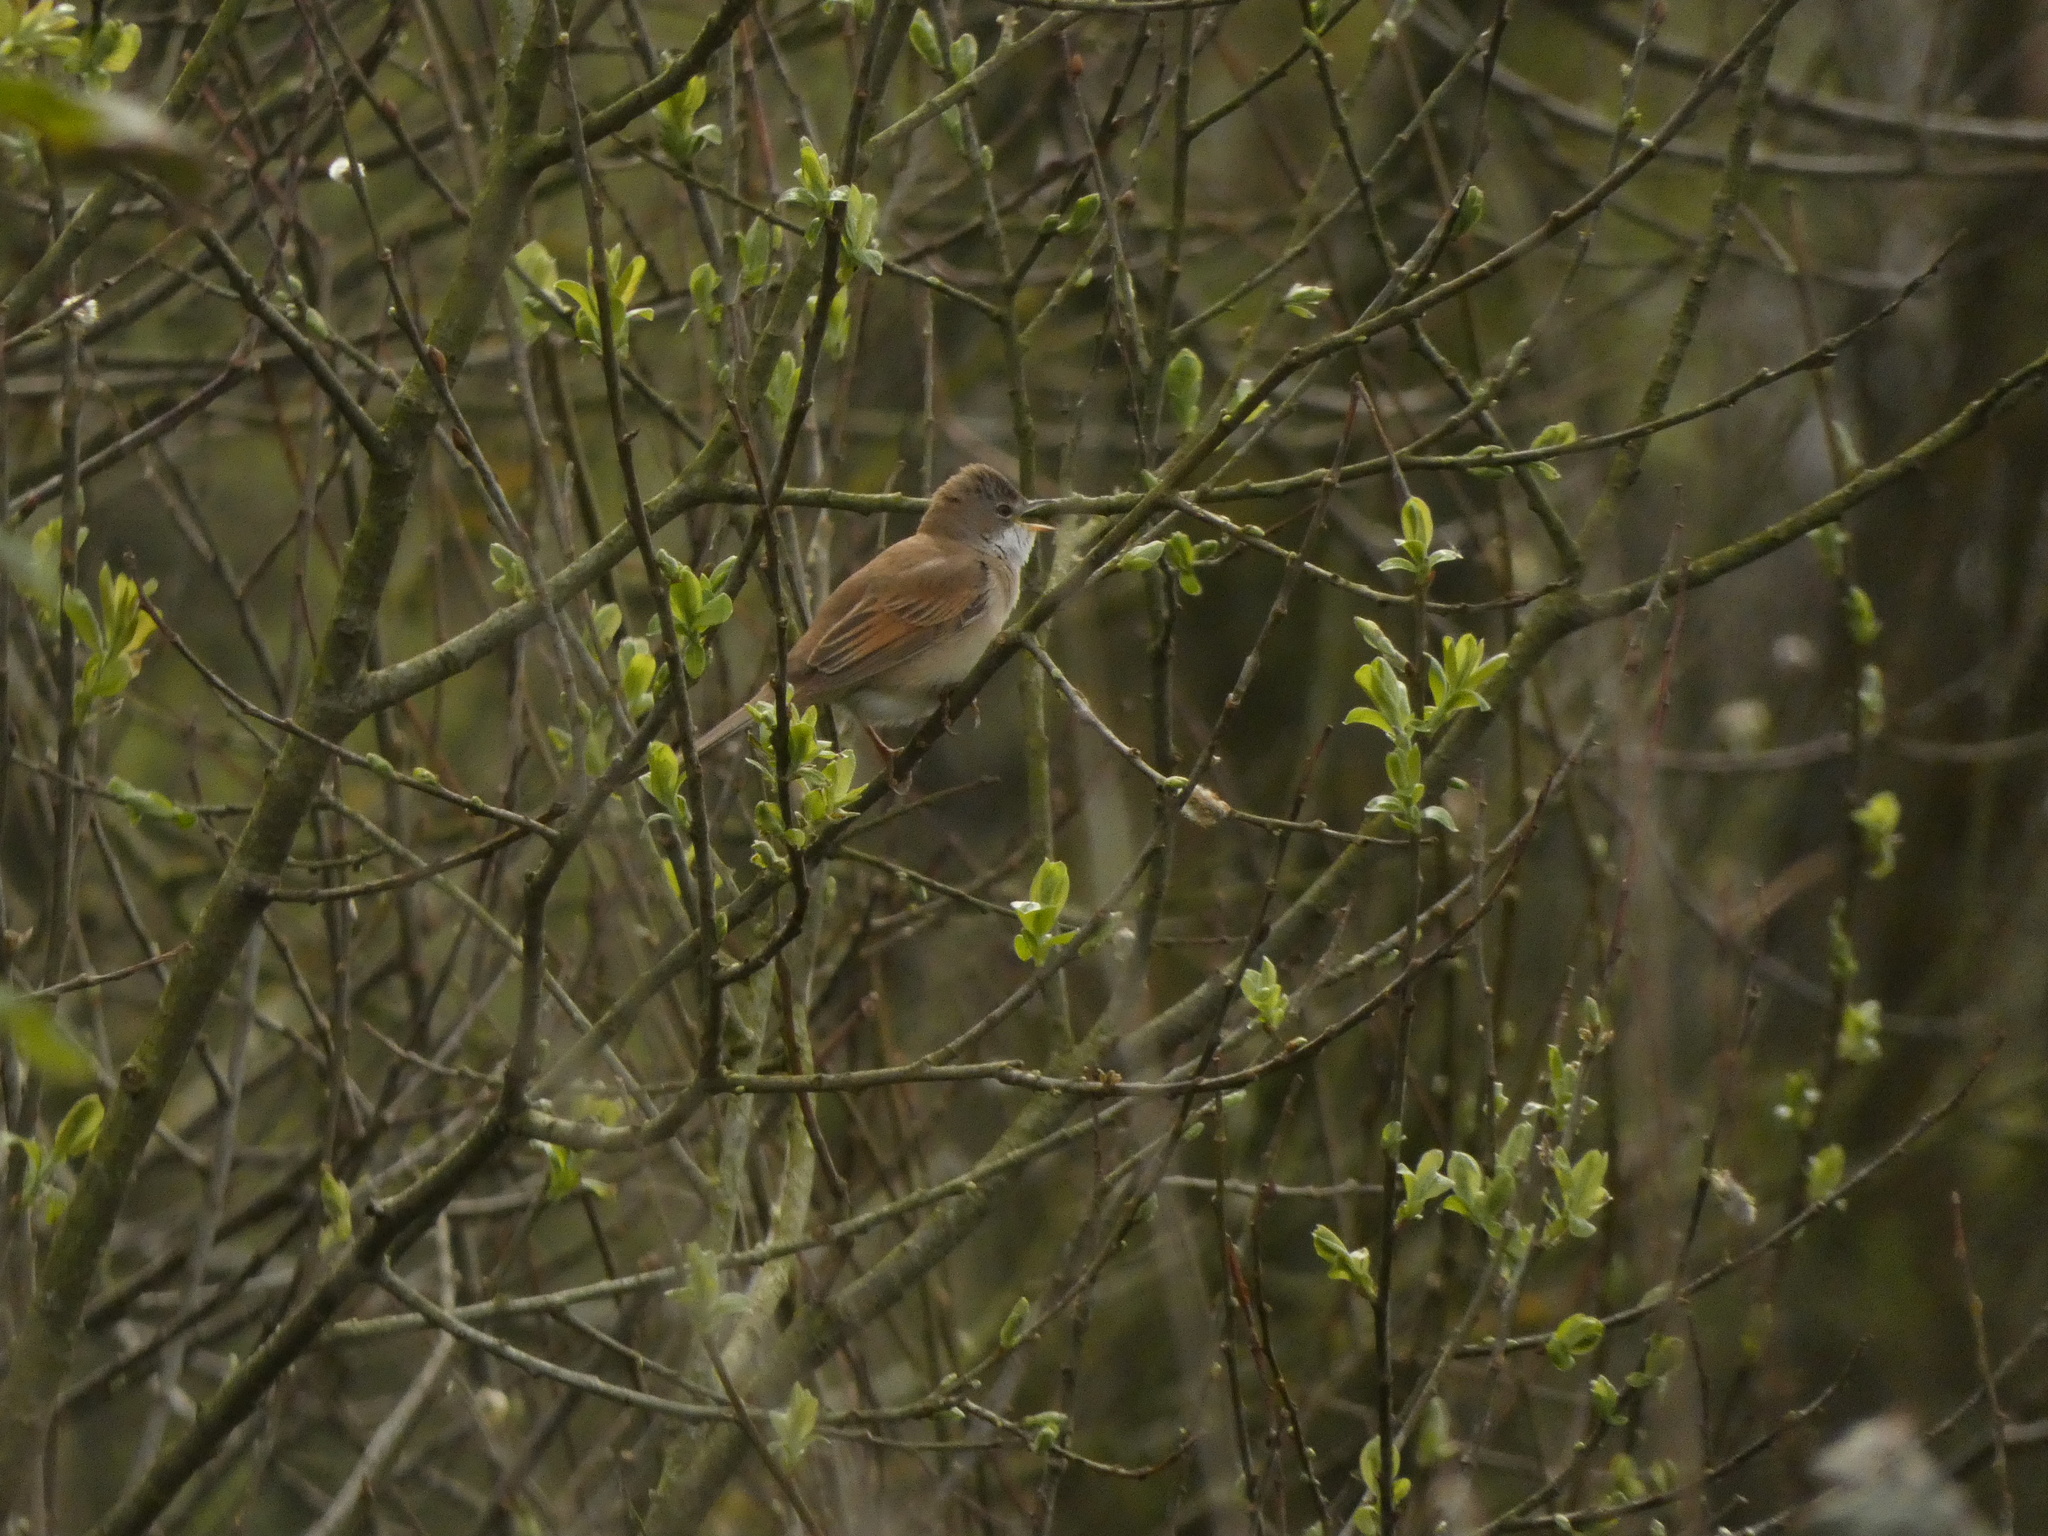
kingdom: Animalia
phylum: Chordata
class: Aves
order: Passeriformes
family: Sylviidae
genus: Sylvia
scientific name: Sylvia communis
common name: Common whitethroat
